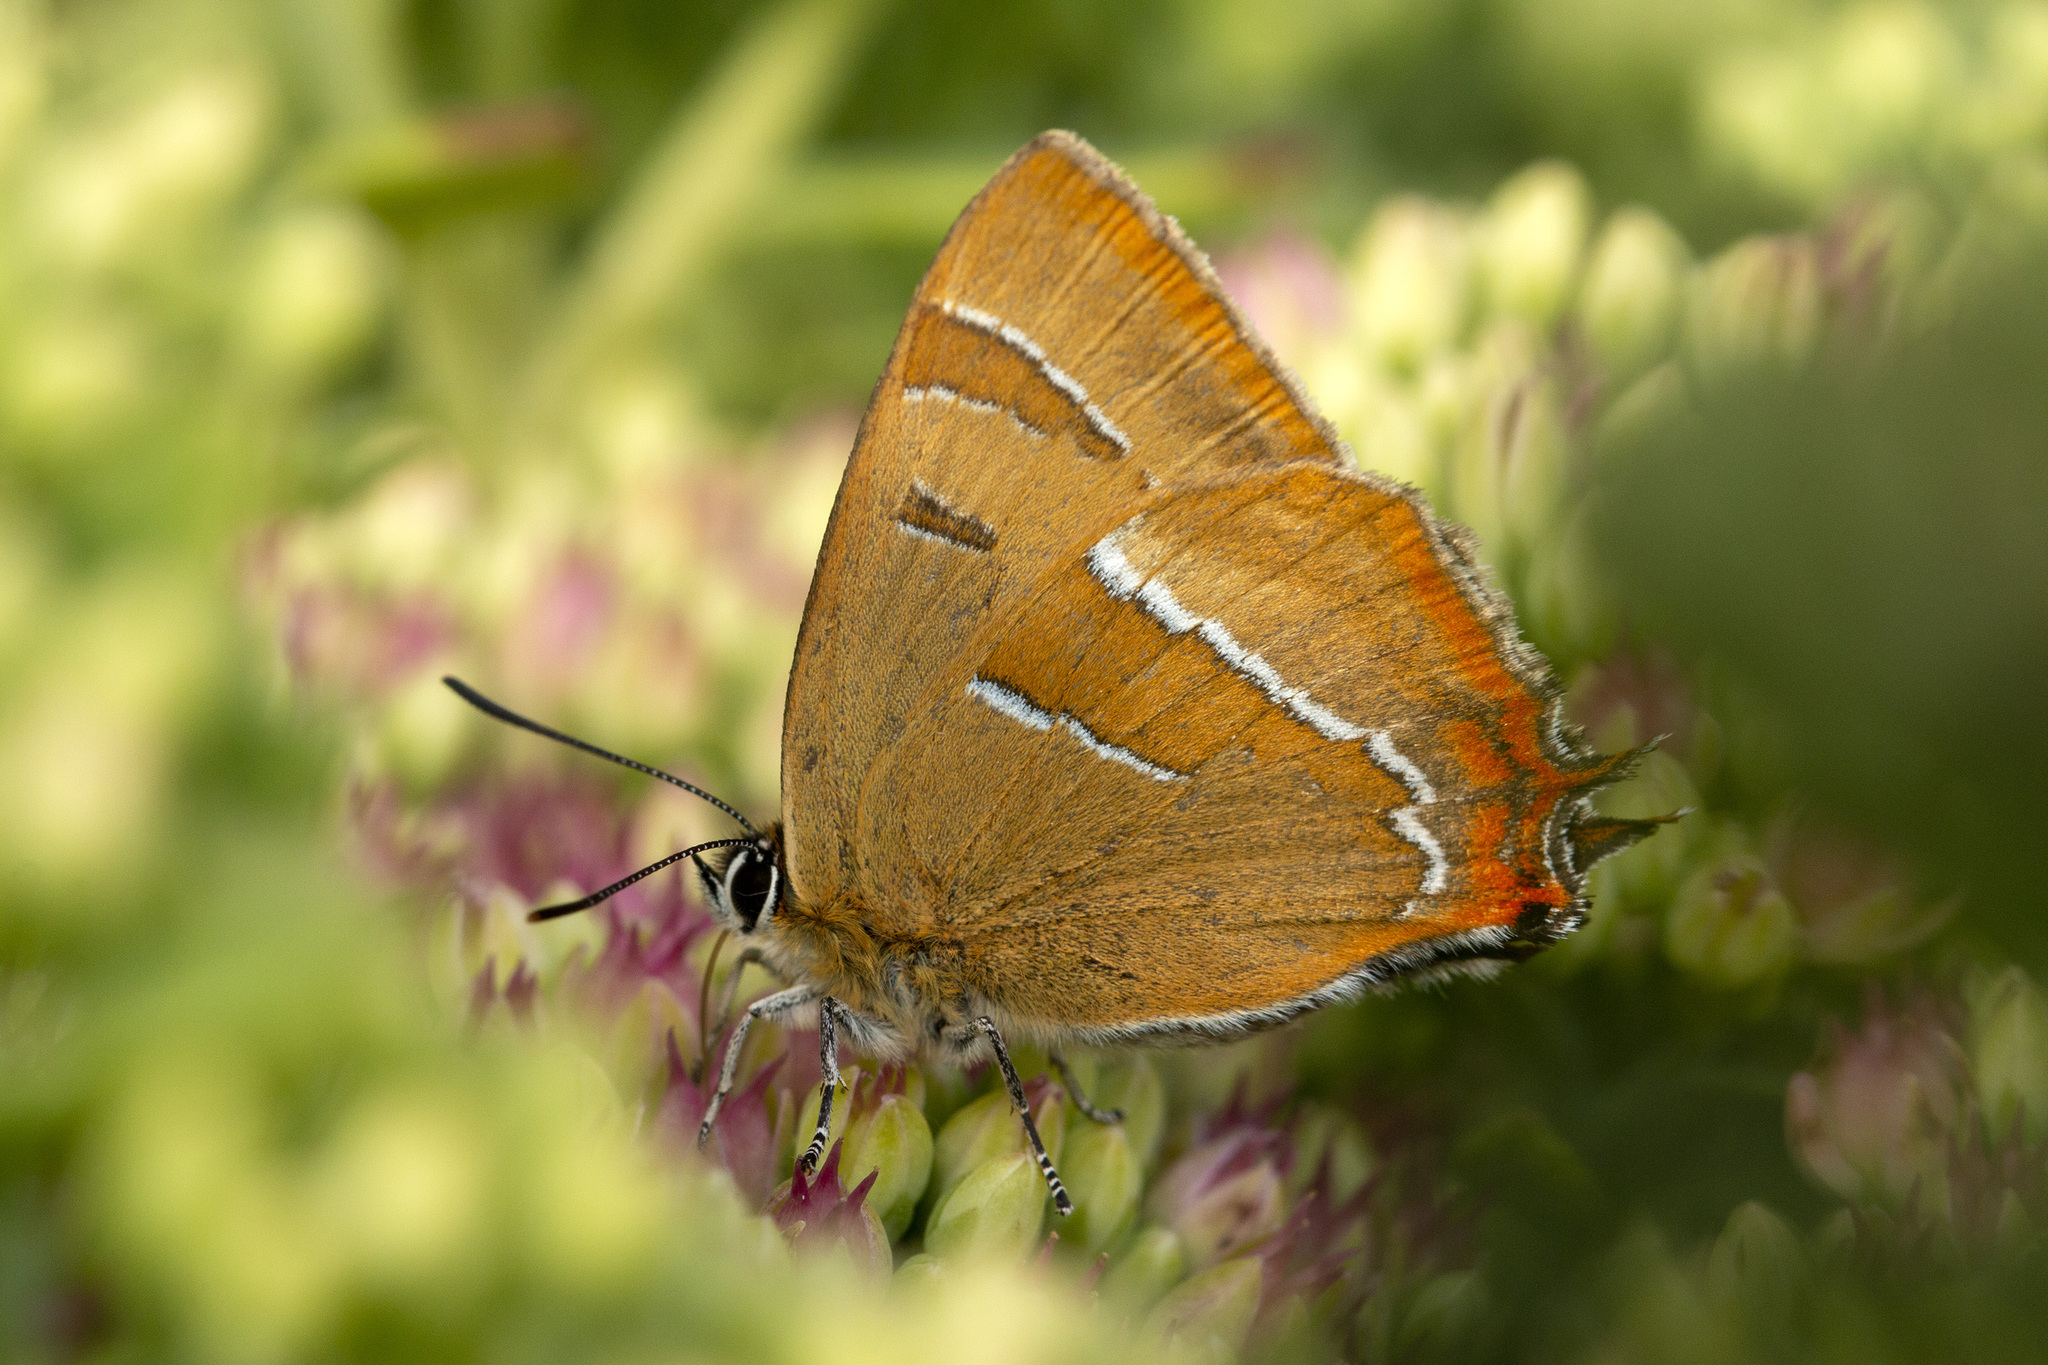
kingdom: Animalia
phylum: Arthropoda
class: Insecta
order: Lepidoptera
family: Lycaenidae
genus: Thecla
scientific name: Thecla betulae
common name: Brown hairstreak
